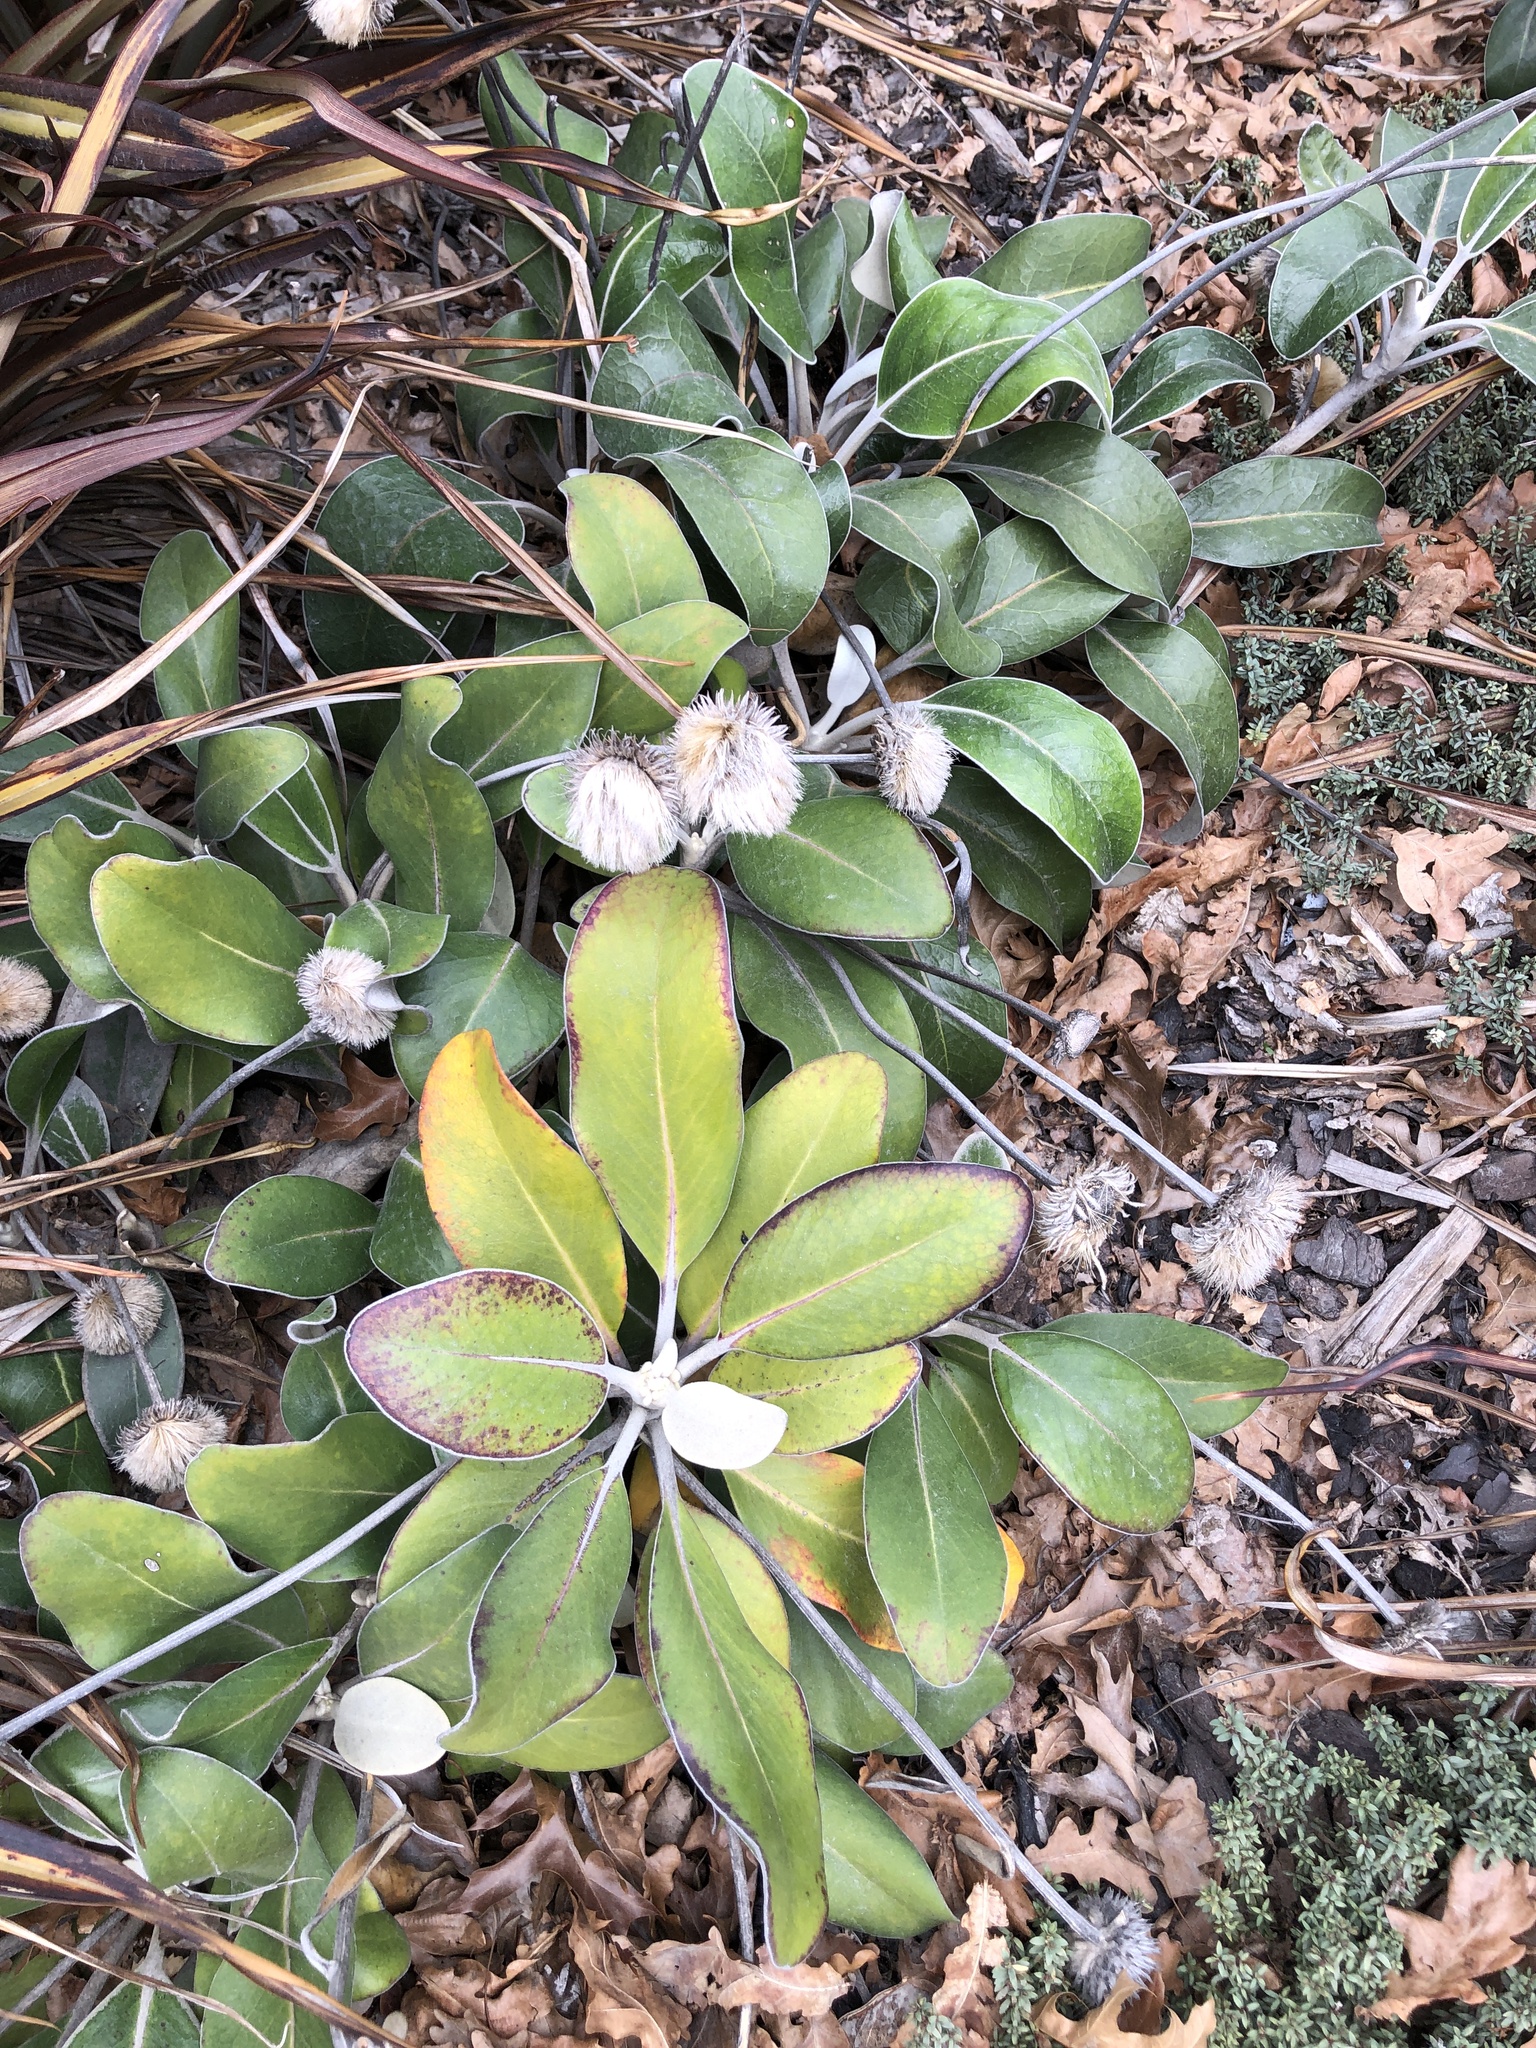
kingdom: Plantae
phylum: Tracheophyta
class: Magnoliopsida
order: Asterales
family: Asteraceae
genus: Pachystegia
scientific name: Pachystegia rufa
